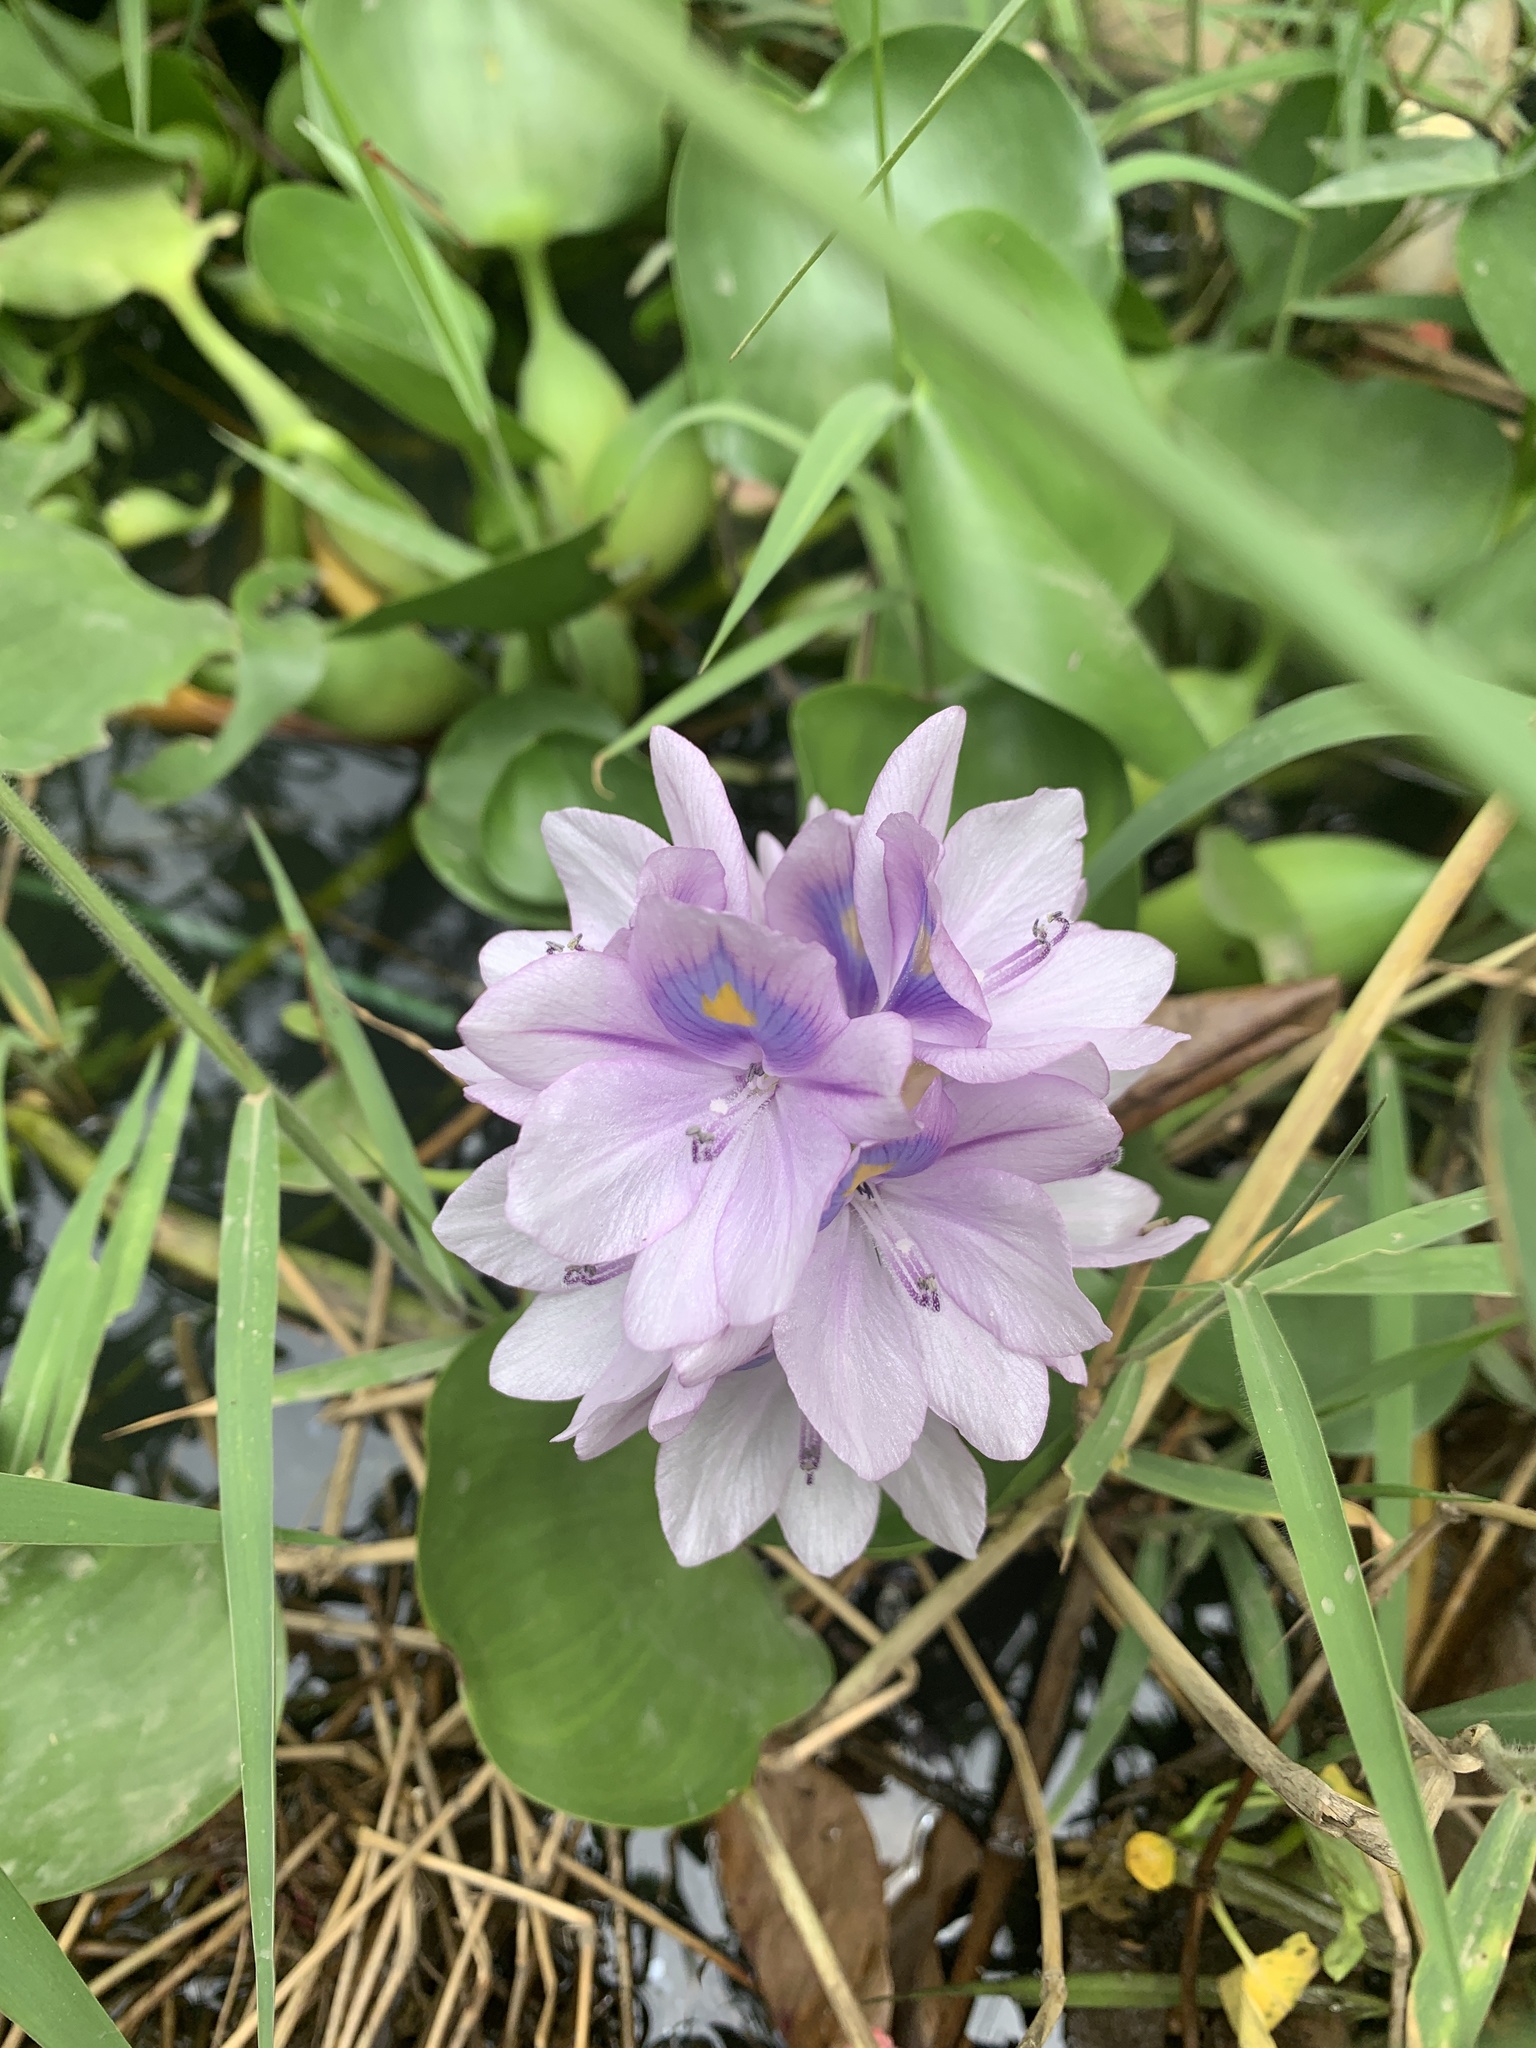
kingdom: Plantae
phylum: Tracheophyta
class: Liliopsida
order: Commelinales
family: Pontederiaceae
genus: Pontederia
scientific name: Pontederia crassipes
